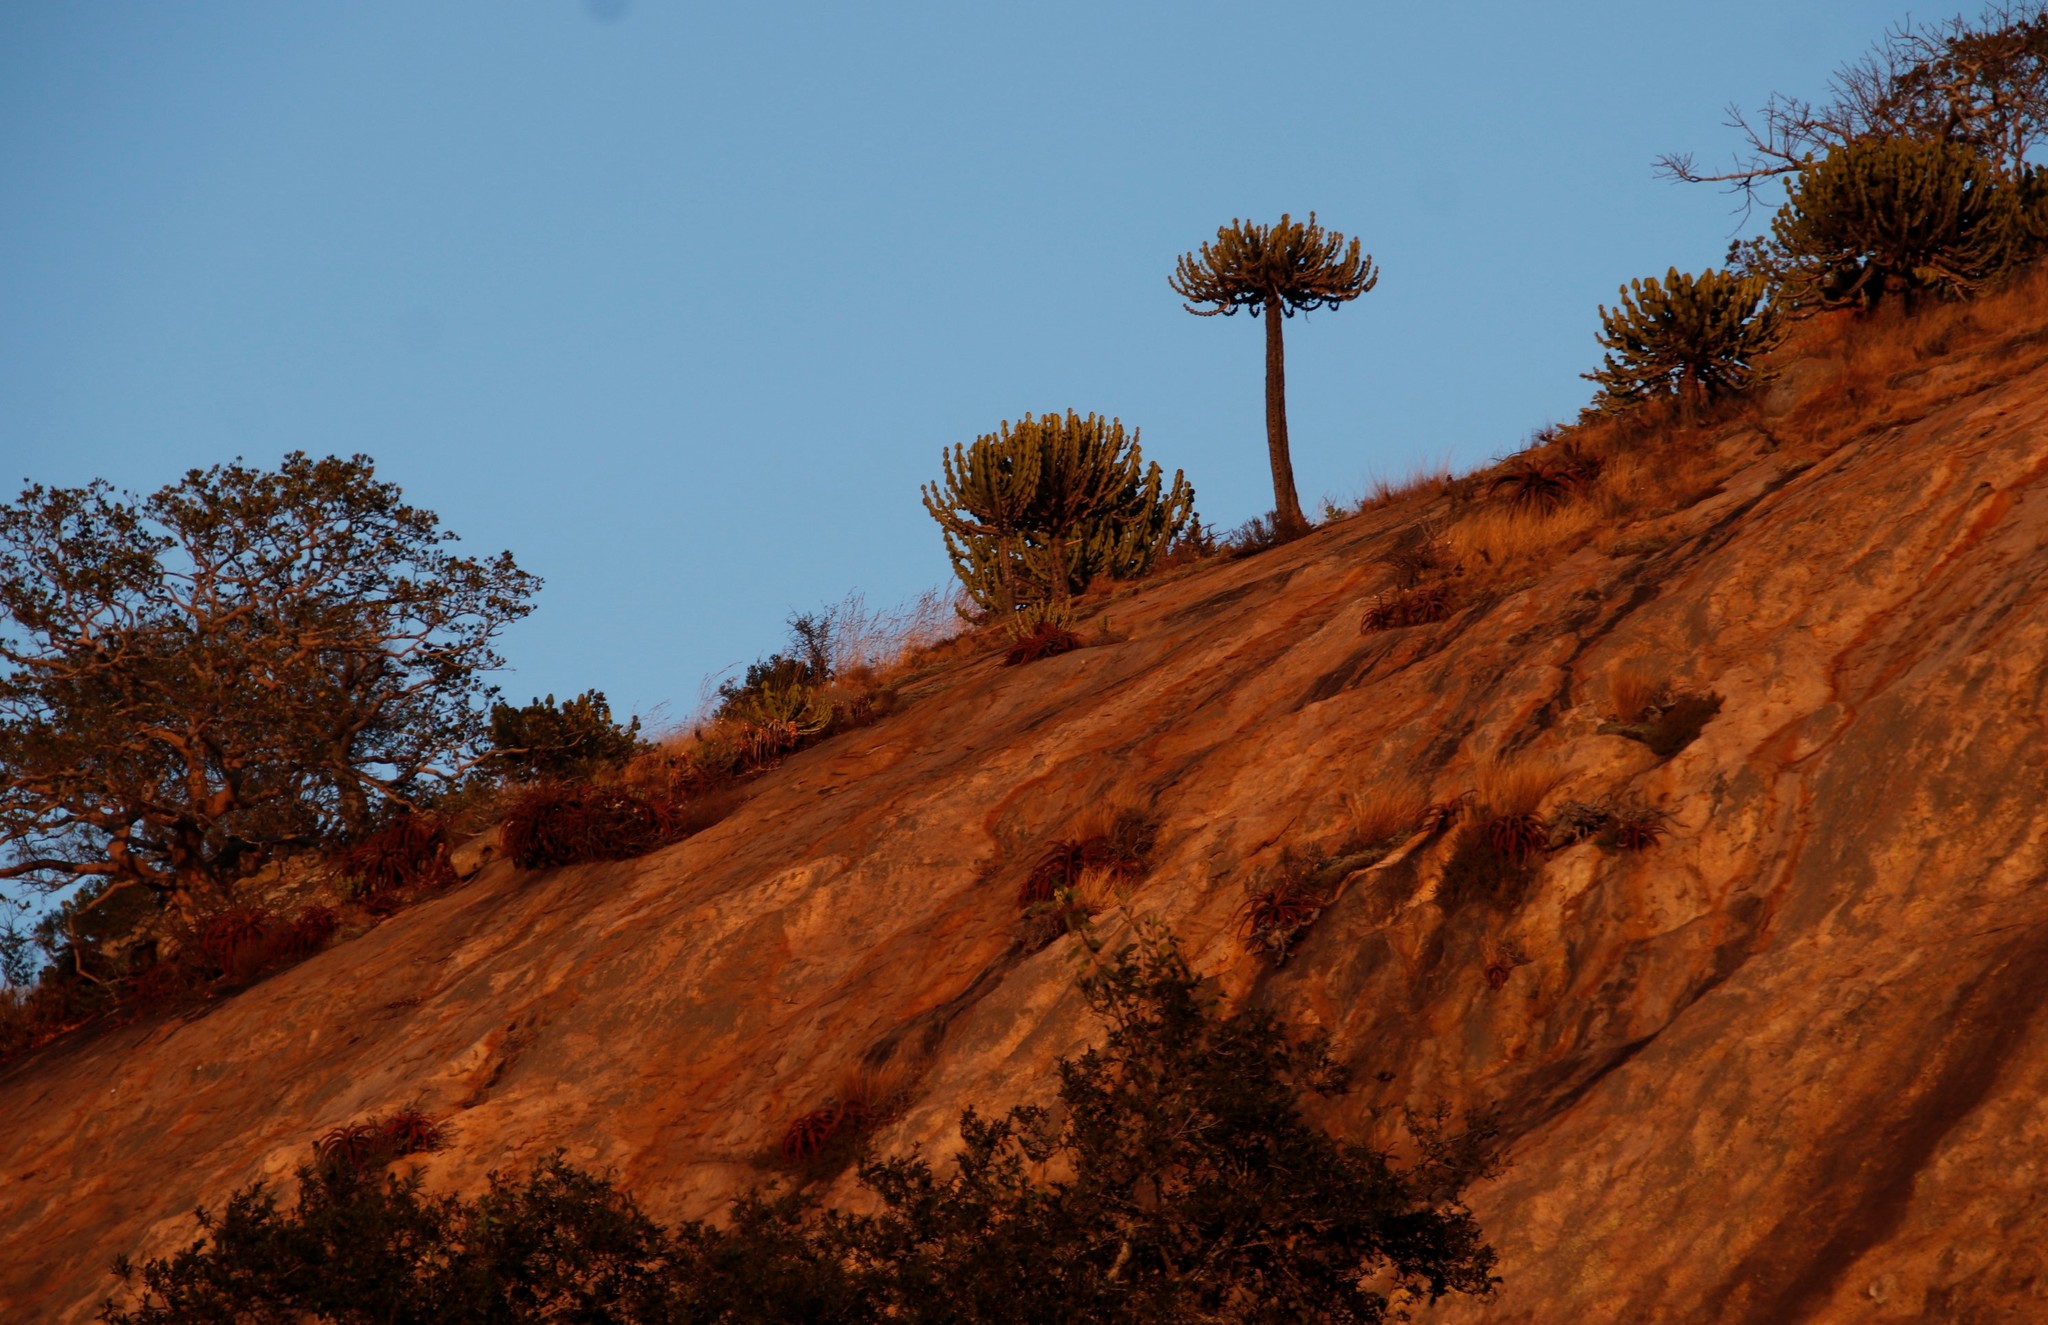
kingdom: Plantae
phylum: Tracheophyta
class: Magnoliopsida
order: Malpighiales
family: Euphorbiaceae
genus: Euphorbia
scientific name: Euphorbia cooperi
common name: Candelabra tree
